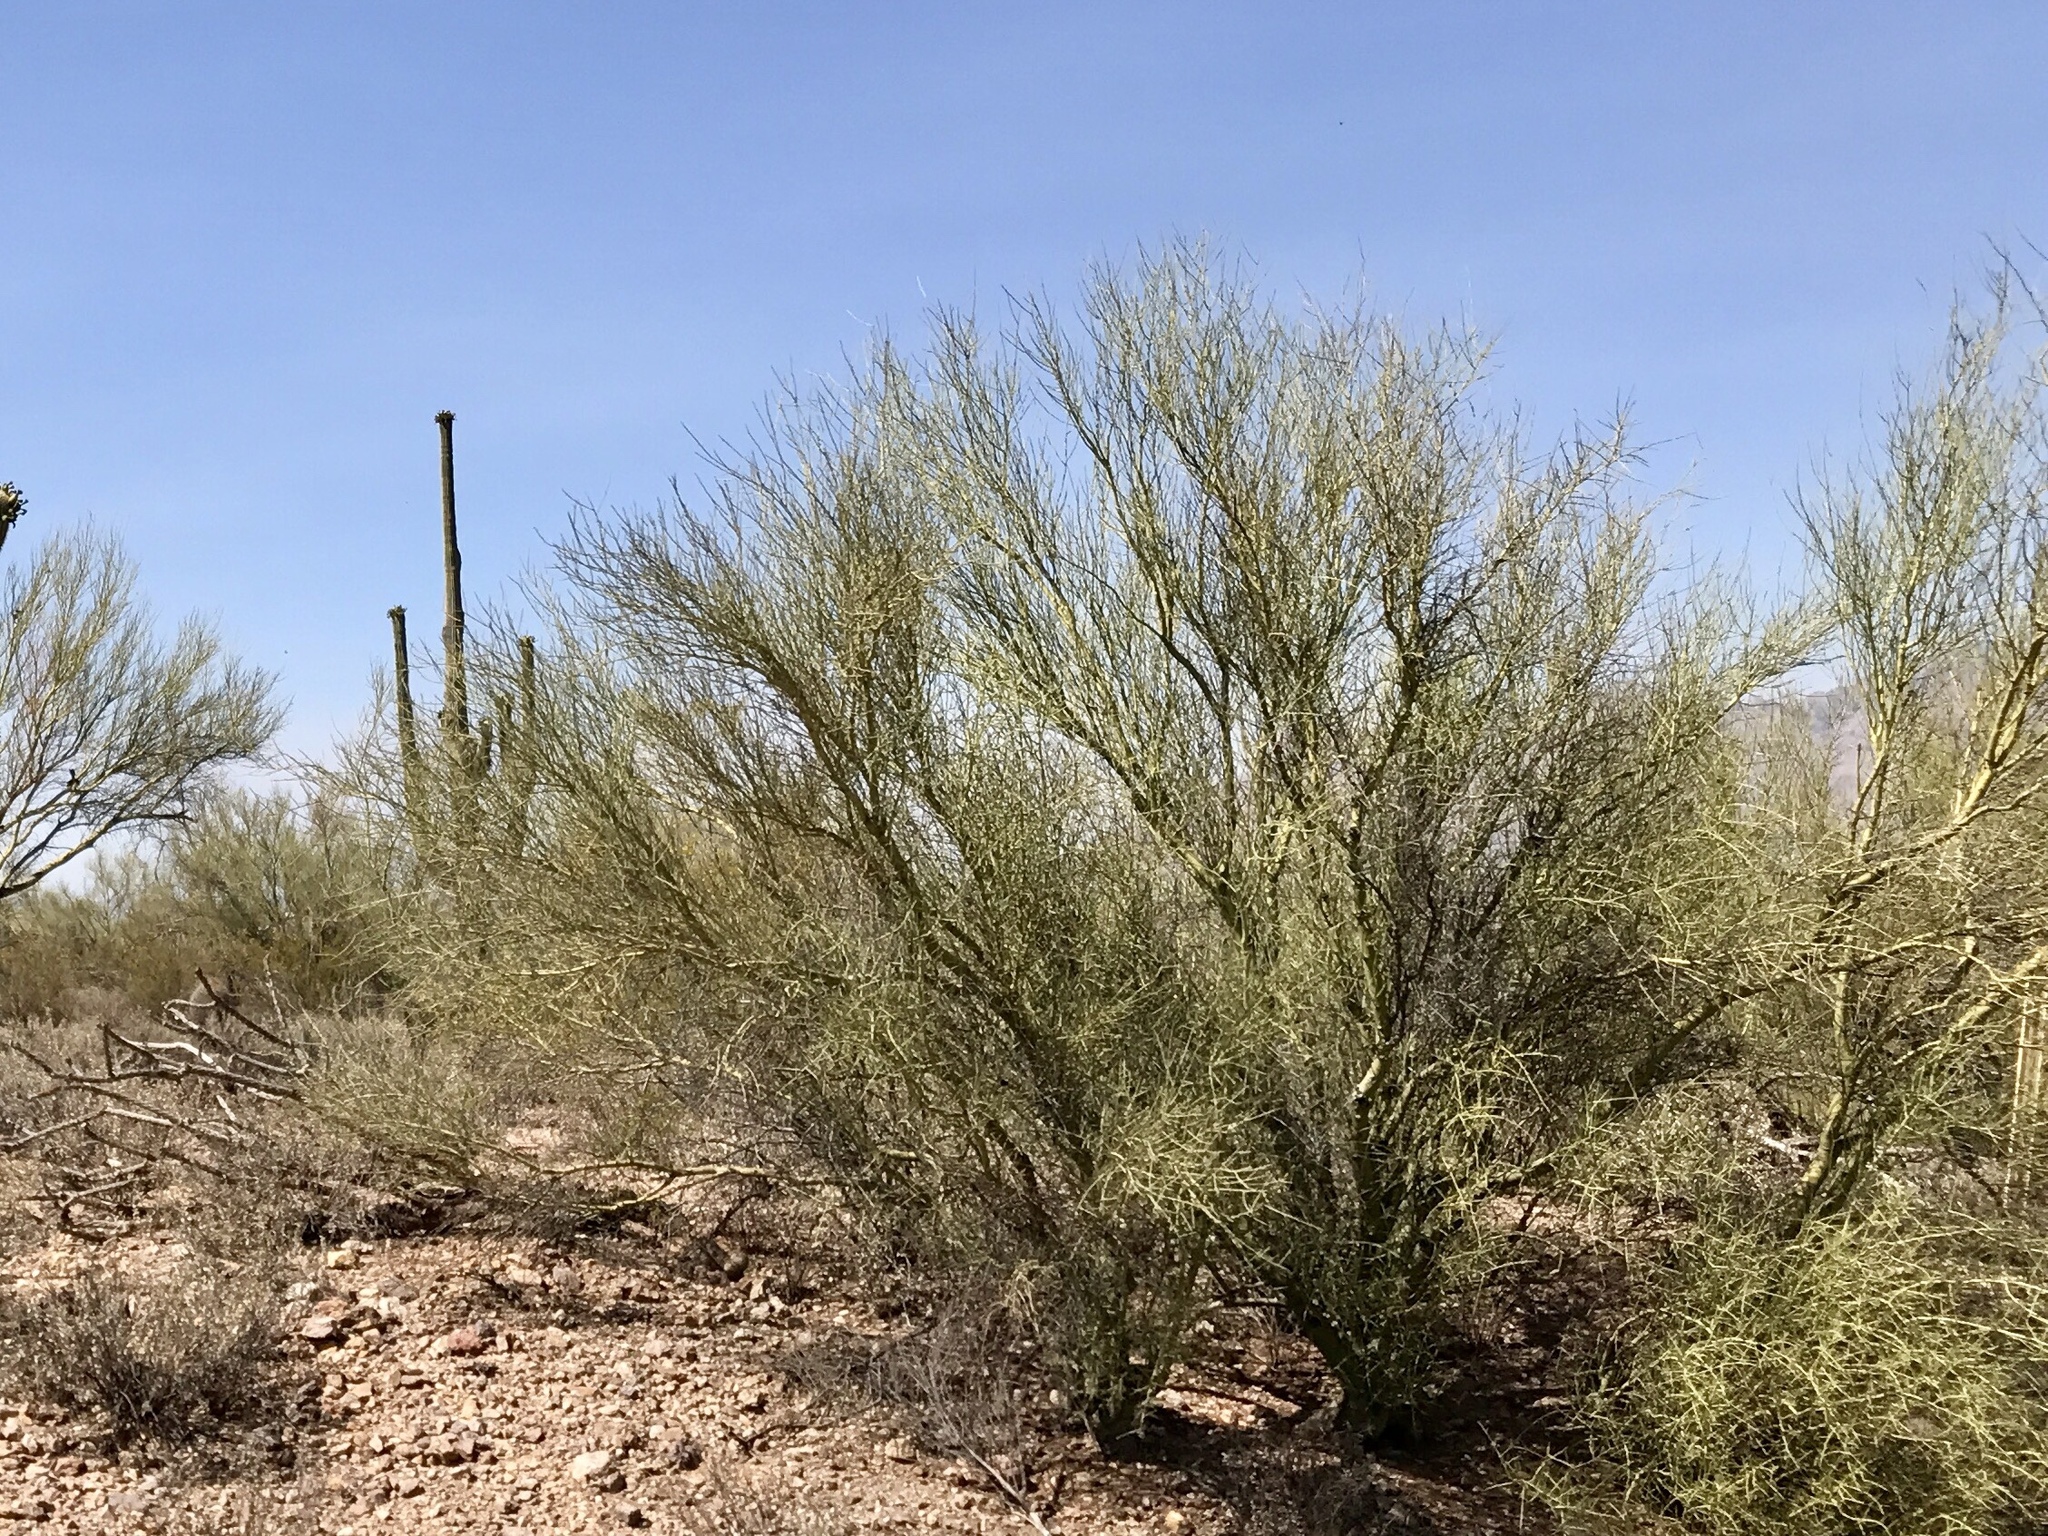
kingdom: Plantae
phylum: Tracheophyta
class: Magnoliopsida
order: Fabales
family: Fabaceae
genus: Parkinsonia
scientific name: Parkinsonia florida
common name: Blue paloverde
